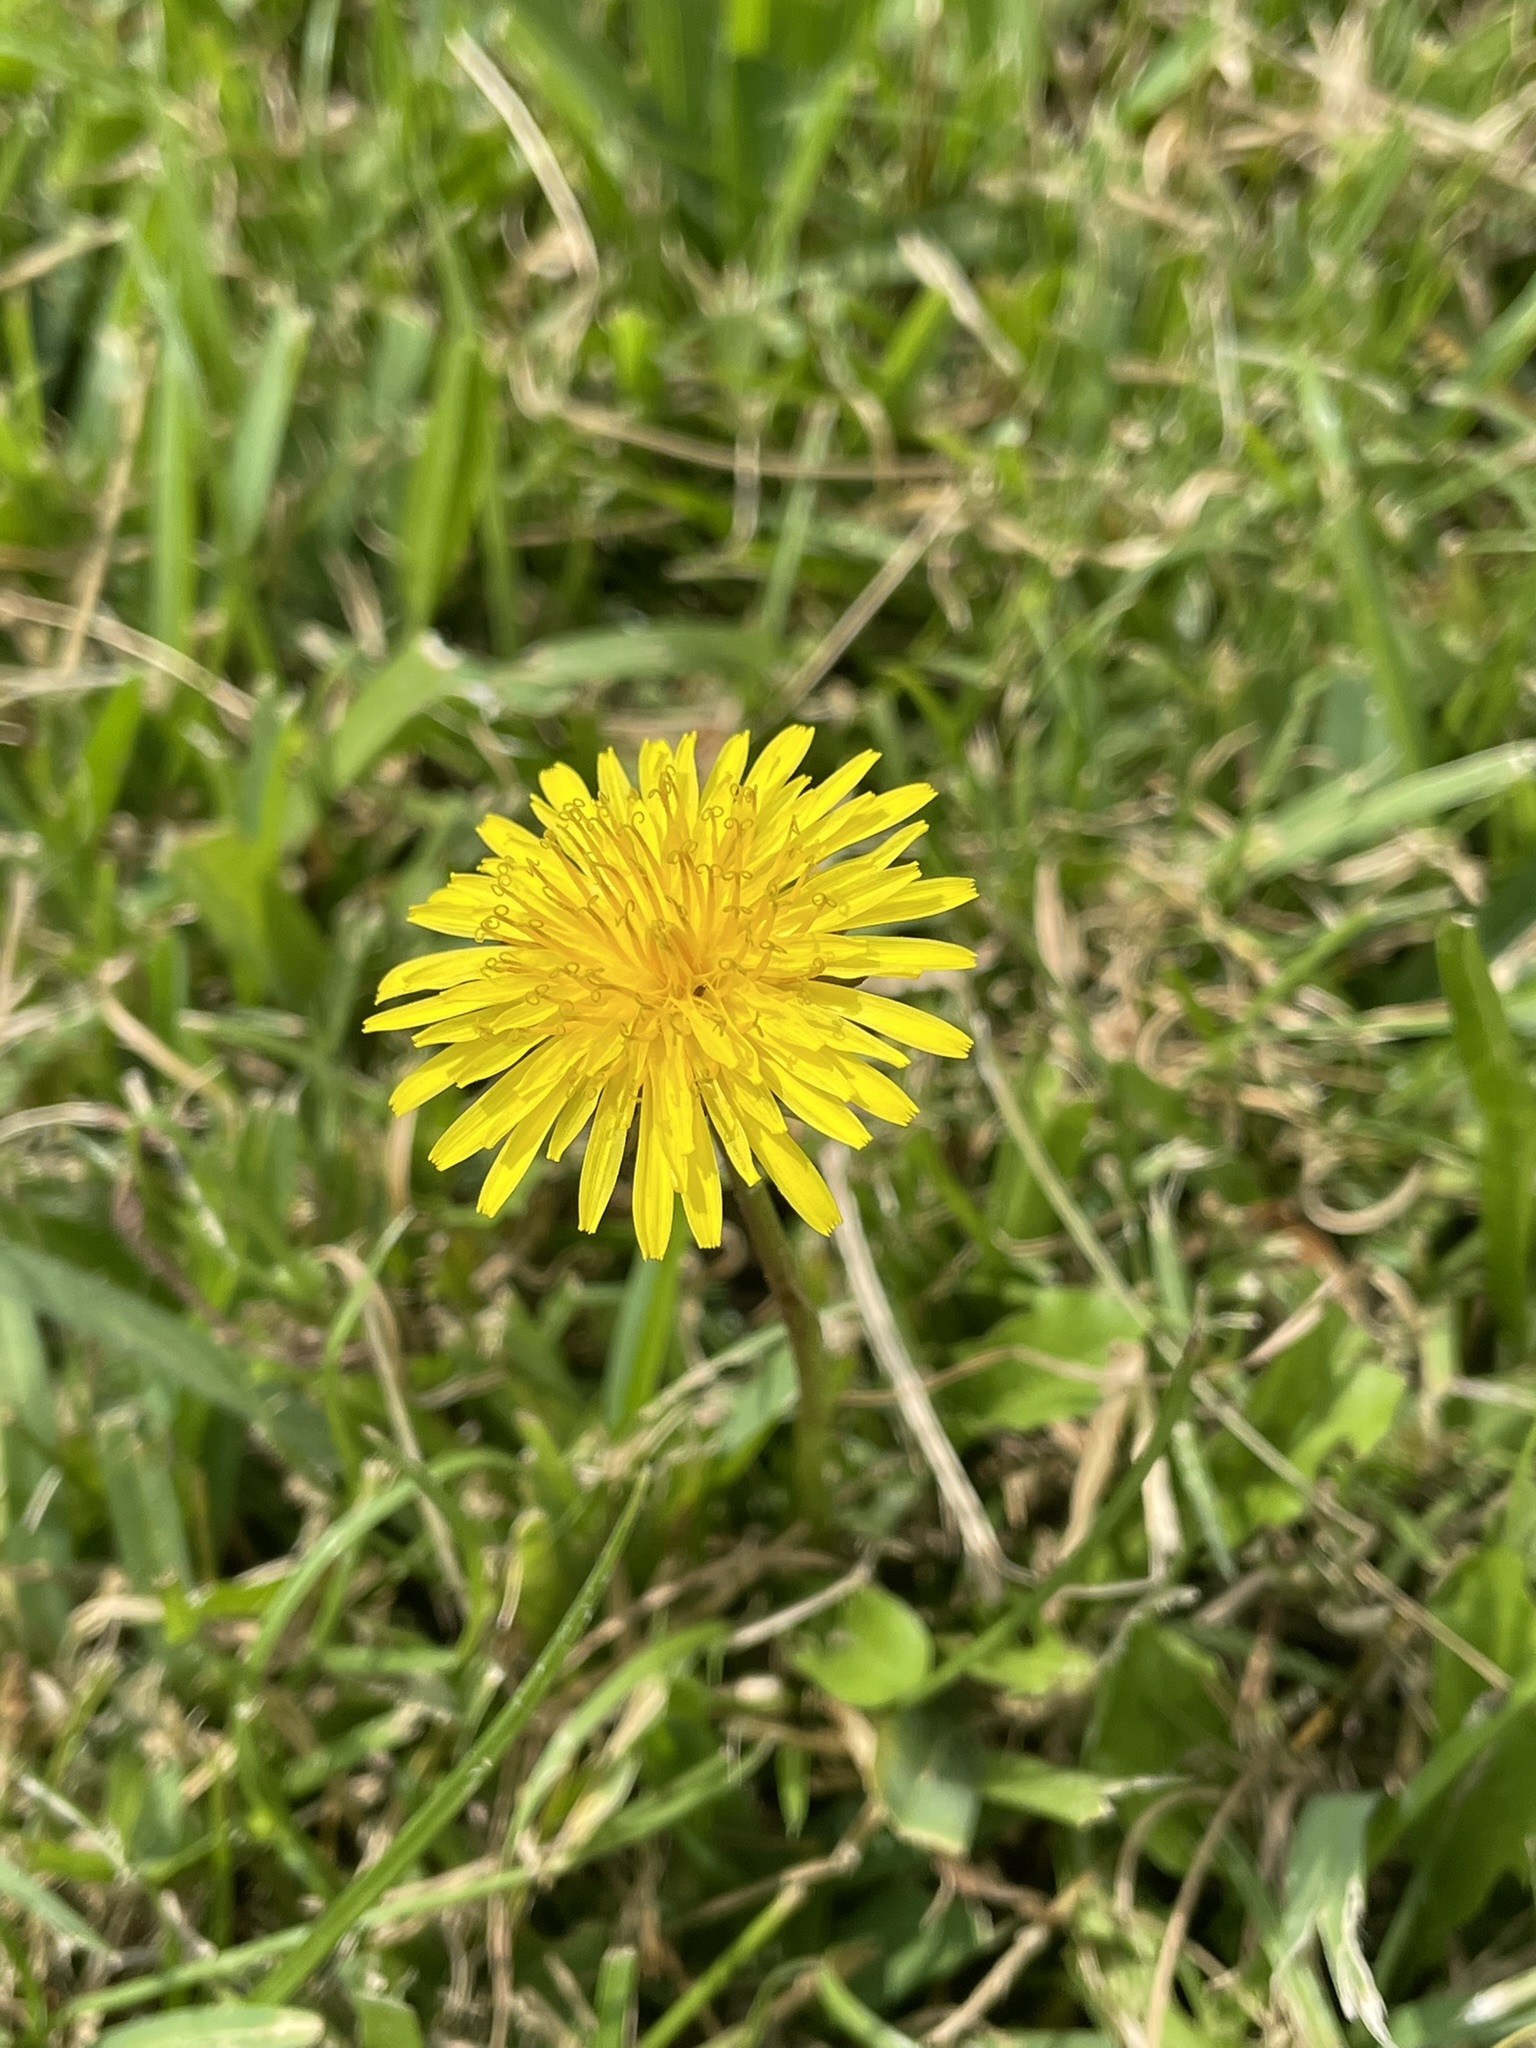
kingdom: Plantae
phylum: Tracheophyta
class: Magnoliopsida
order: Asterales
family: Asteraceae
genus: Taraxacum
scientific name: Taraxacum officinale
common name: Common dandelion
